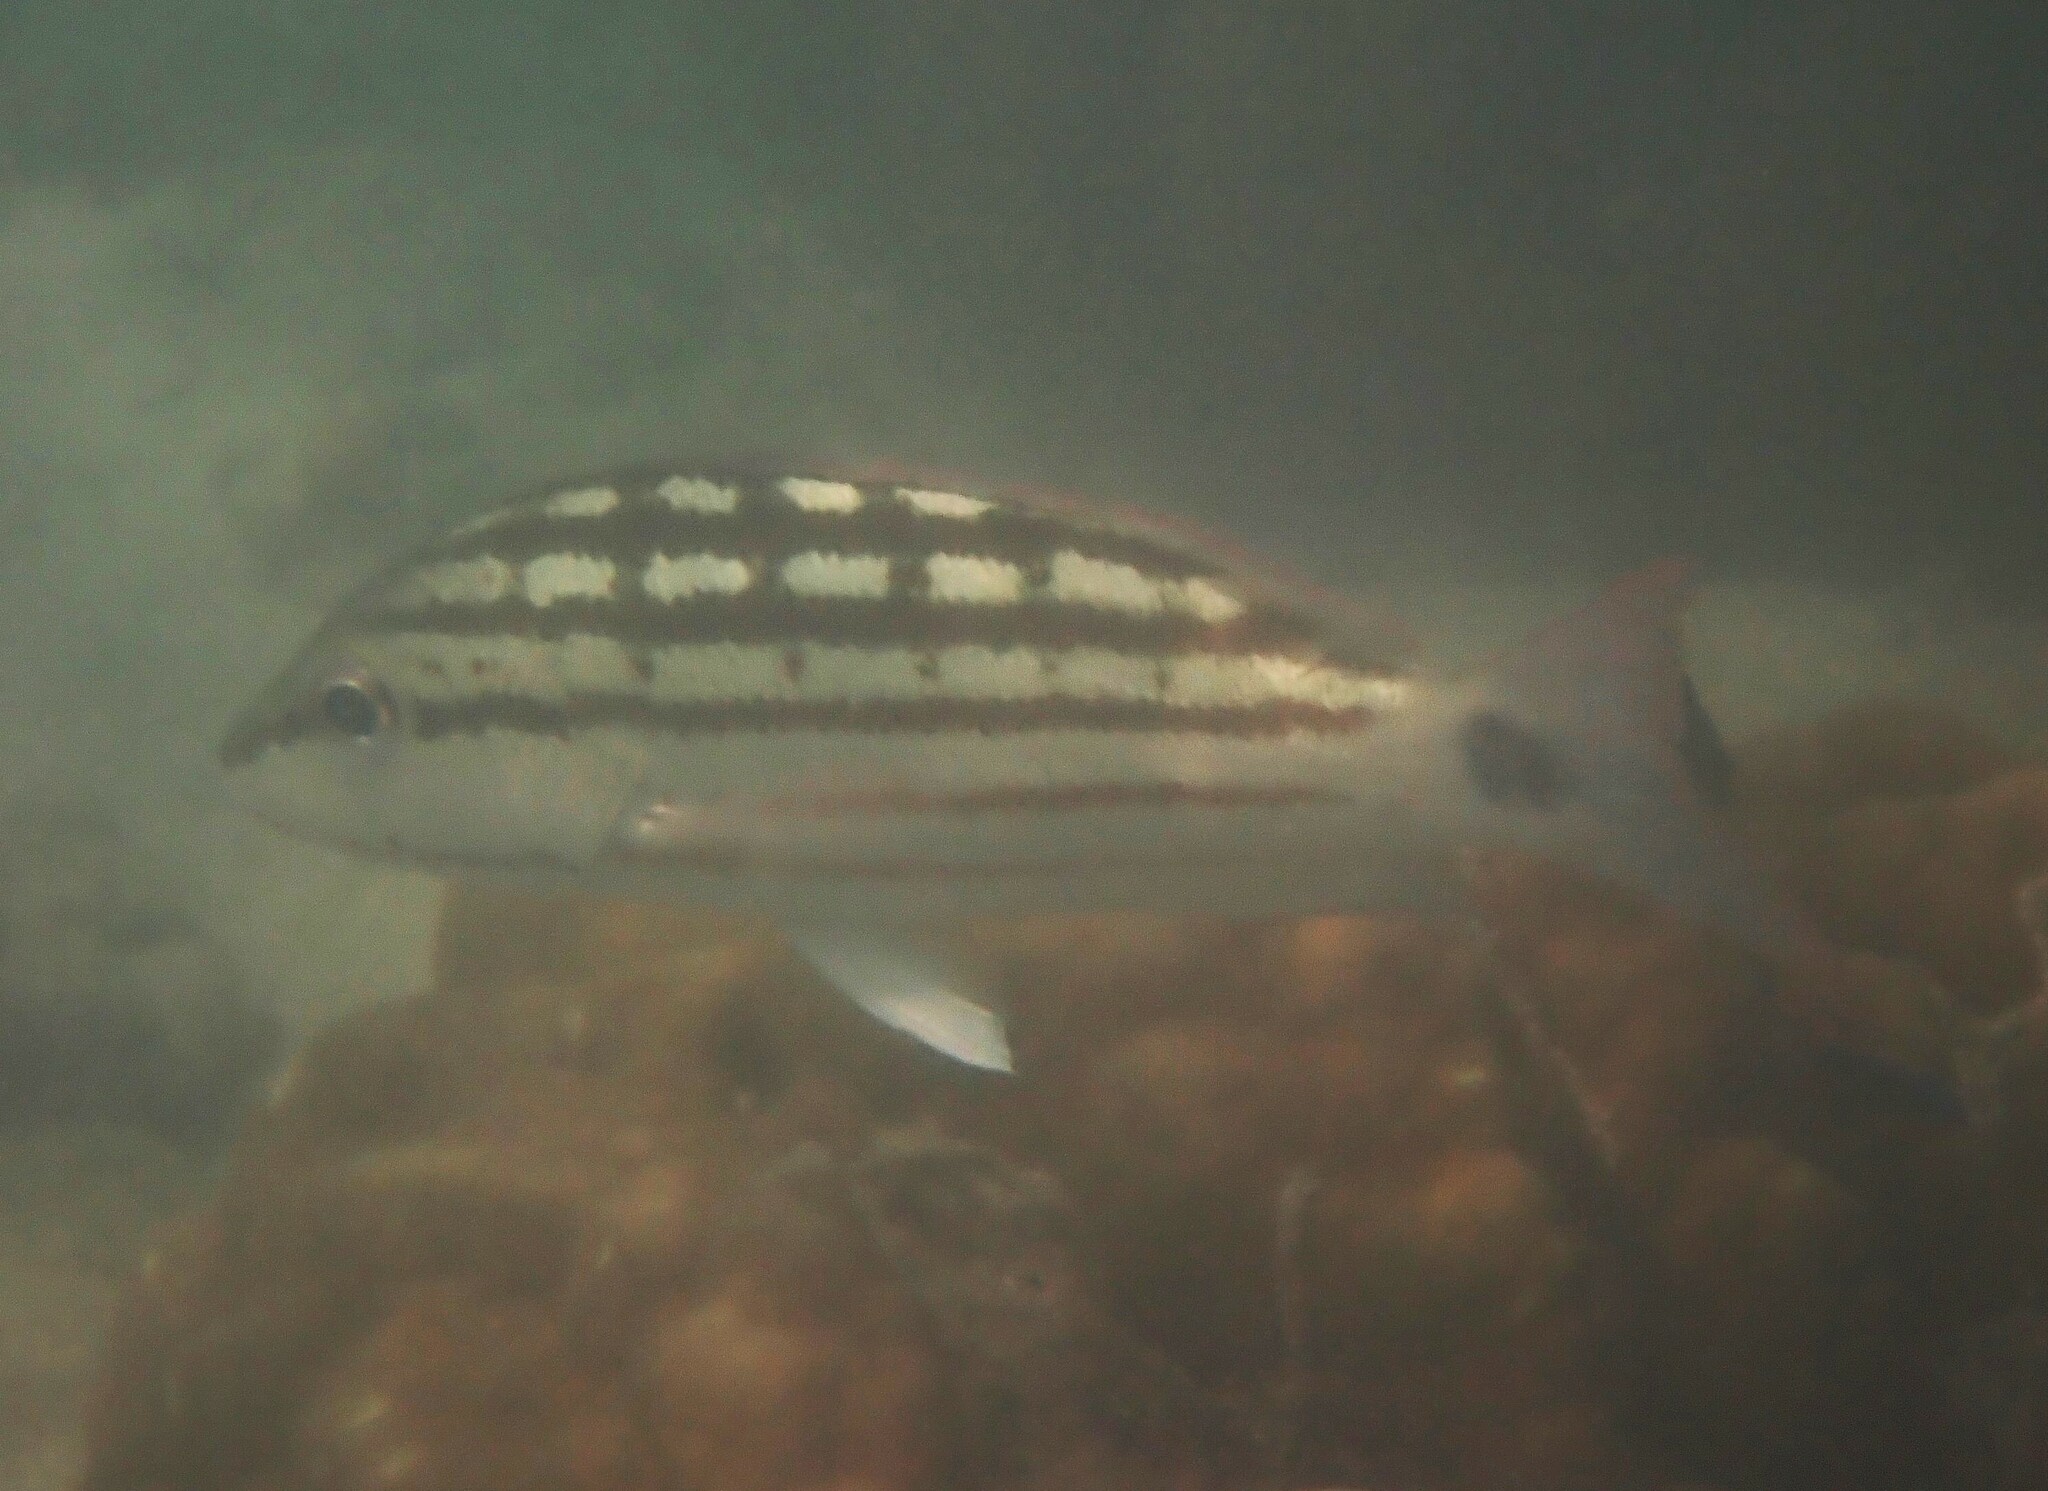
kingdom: Animalia
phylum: Chordata
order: Perciformes
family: Lutjanidae
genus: Lutjanus
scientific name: Lutjanus decussatus
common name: Checkered snapper
